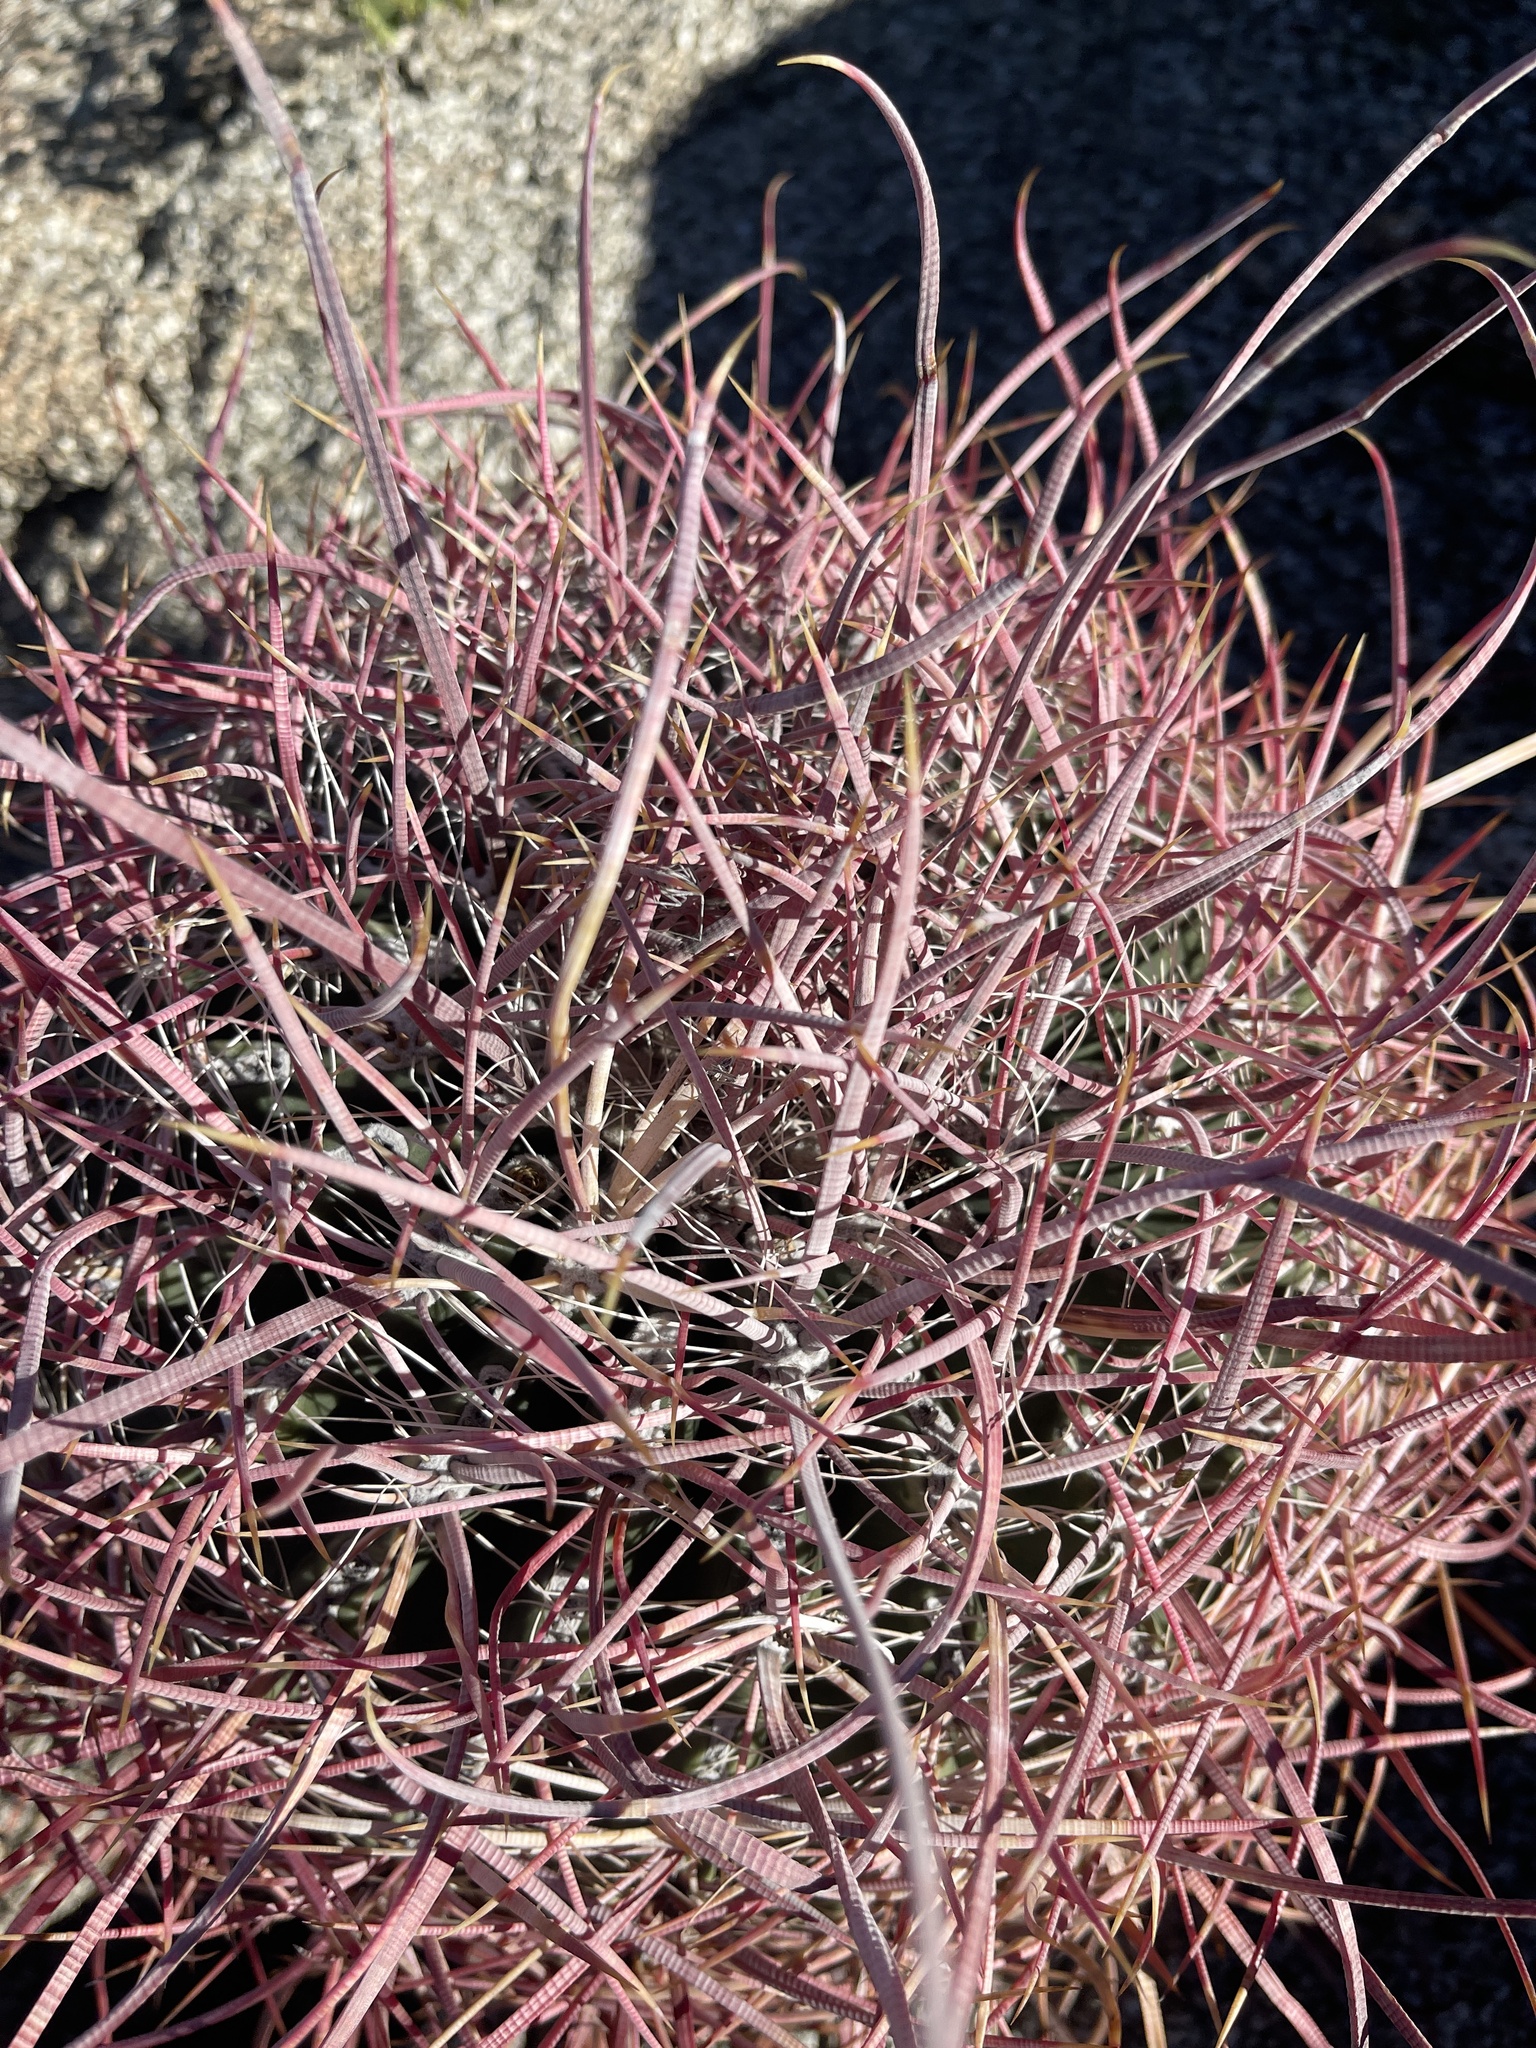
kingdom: Plantae
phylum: Tracheophyta
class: Magnoliopsida
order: Caryophyllales
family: Cactaceae
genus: Ferocactus
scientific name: Ferocactus cylindraceus
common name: California barrel cactus
